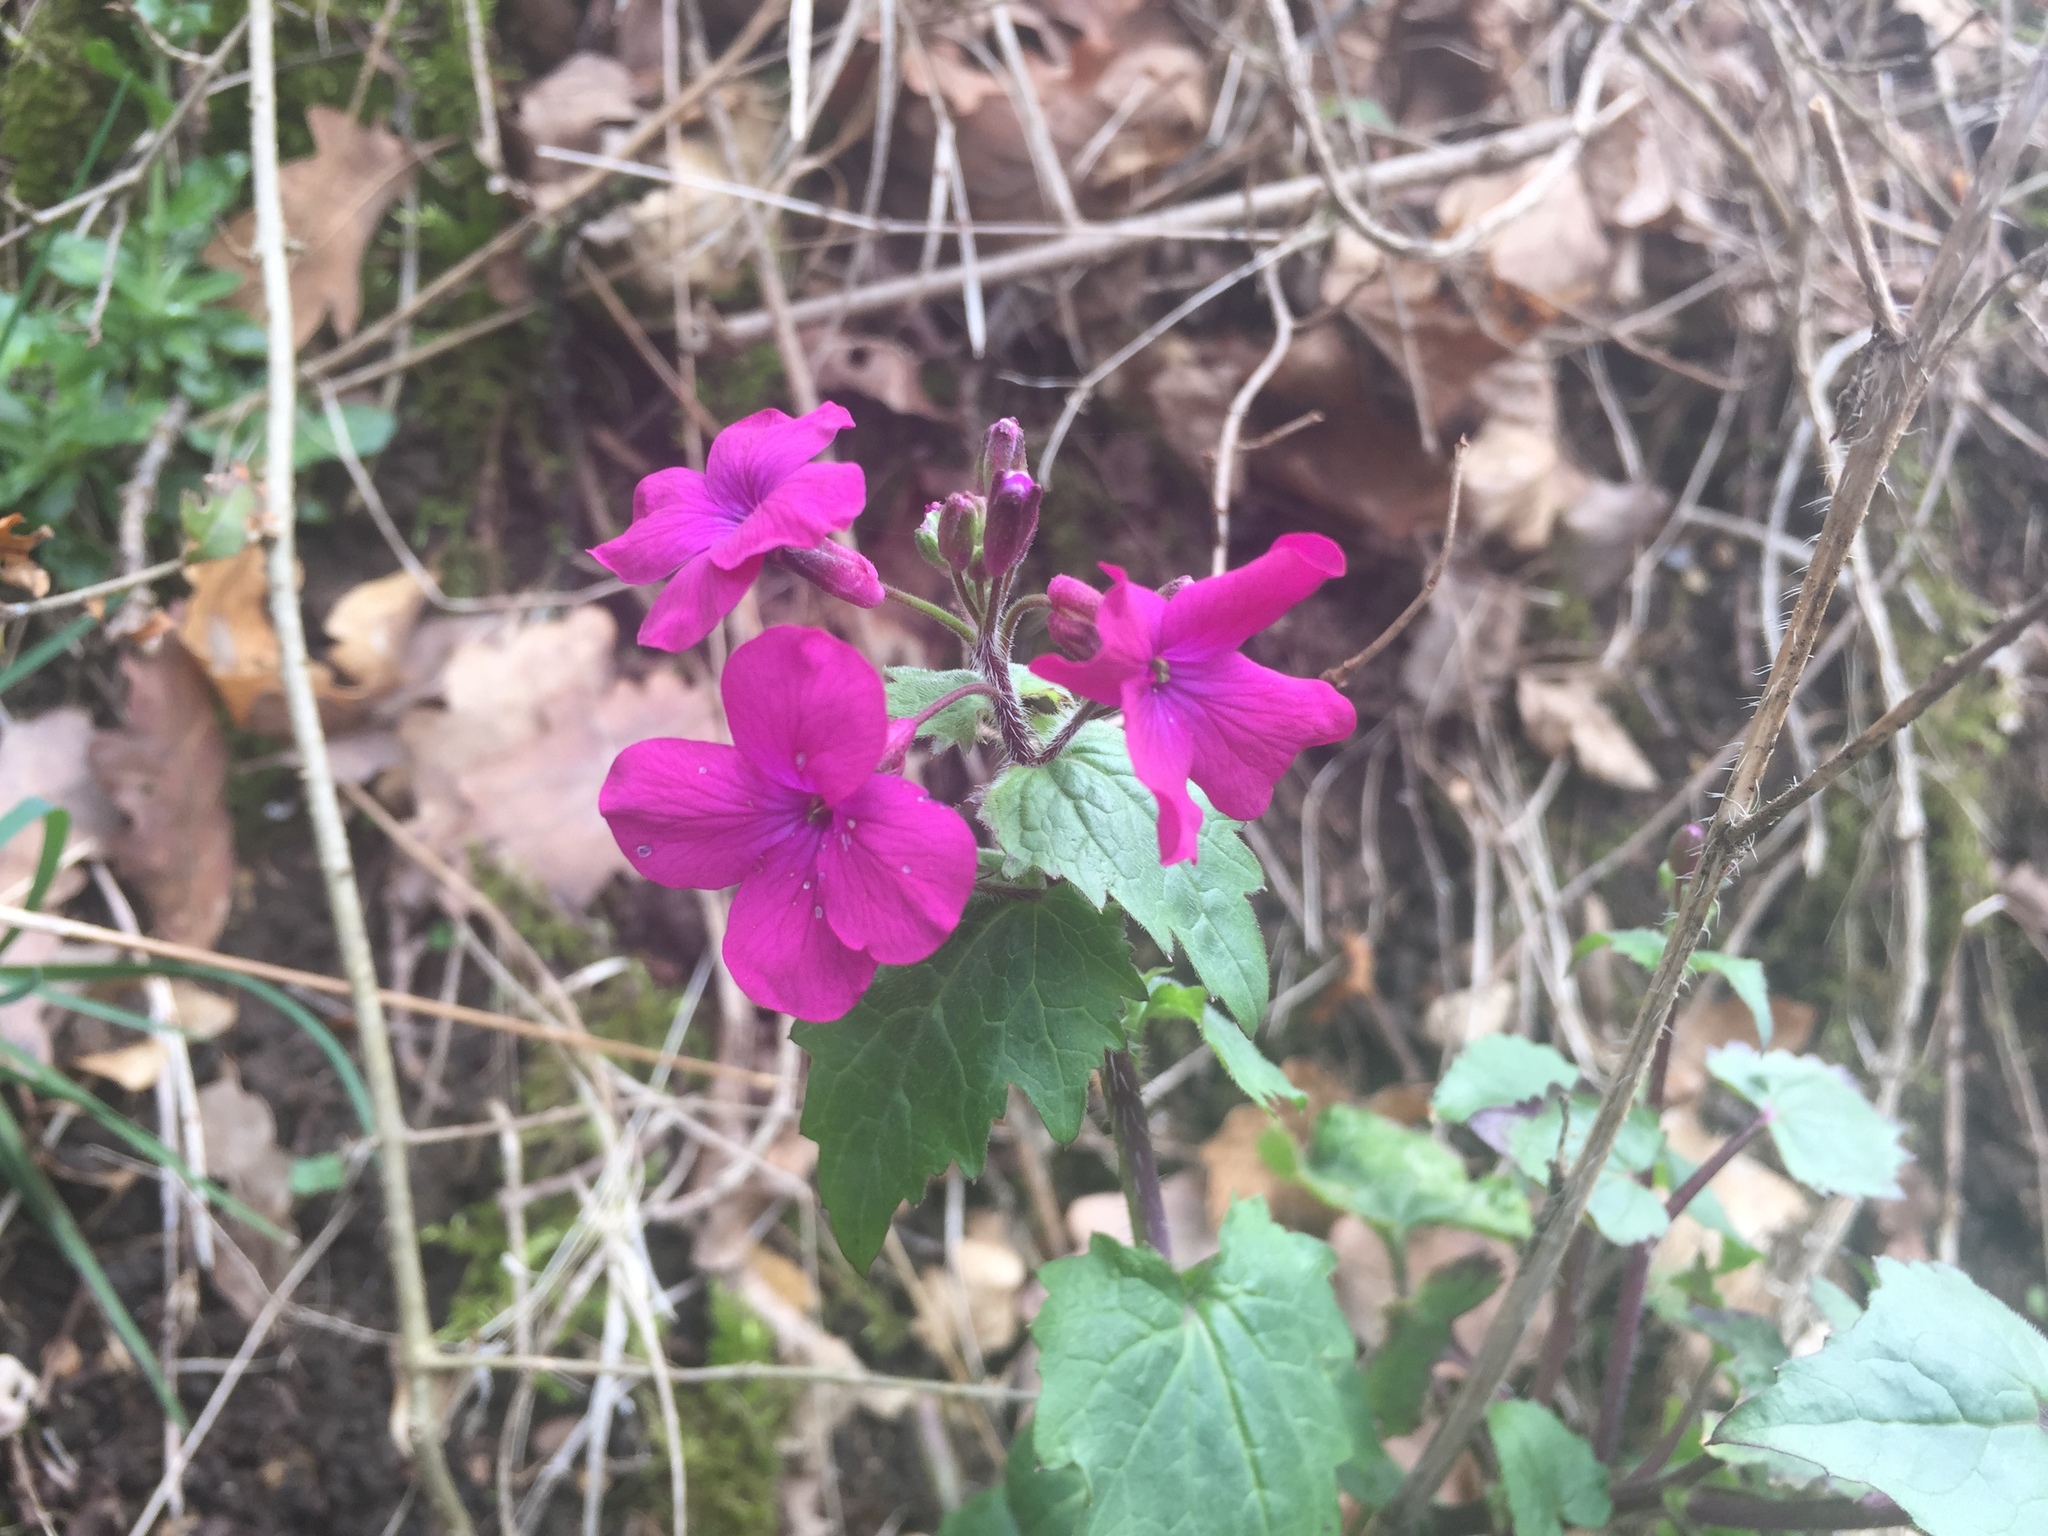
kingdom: Plantae
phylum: Tracheophyta
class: Magnoliopsida
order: Brassicales
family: Brassicaceae
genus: Lunaria
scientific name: Lunaria annua
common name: Honesty
